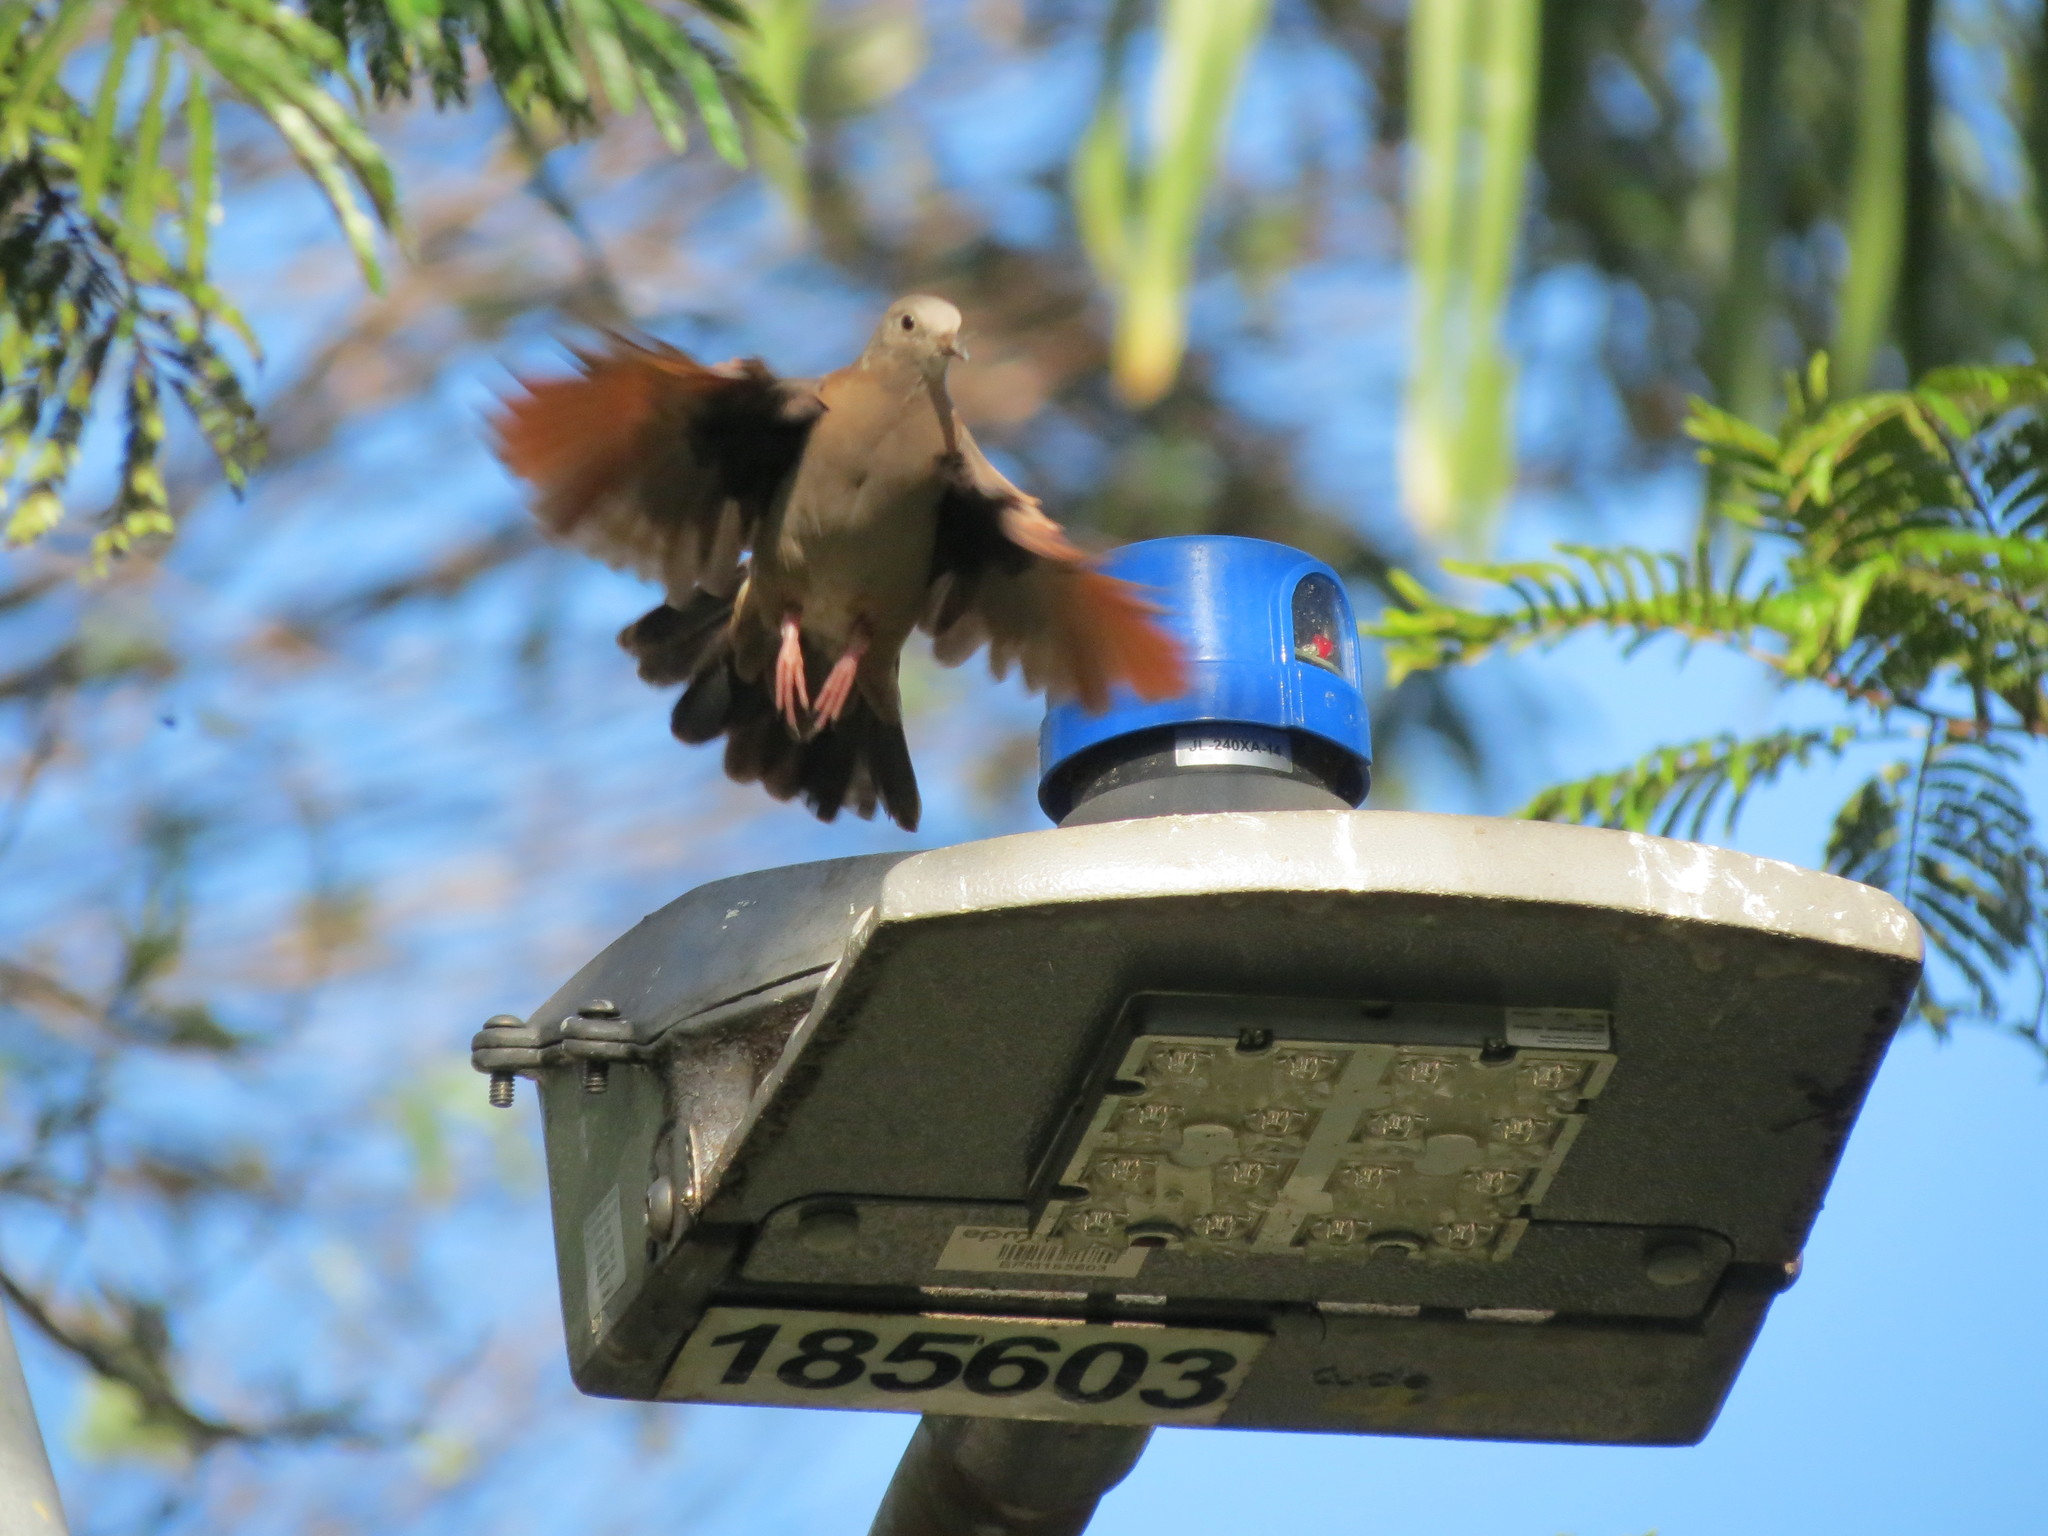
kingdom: Animalia
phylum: Chordata
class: Aves
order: Columbiformes
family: Columbidae
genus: Columbina
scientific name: Columbina talpacoti
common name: Ruddy ground dove
